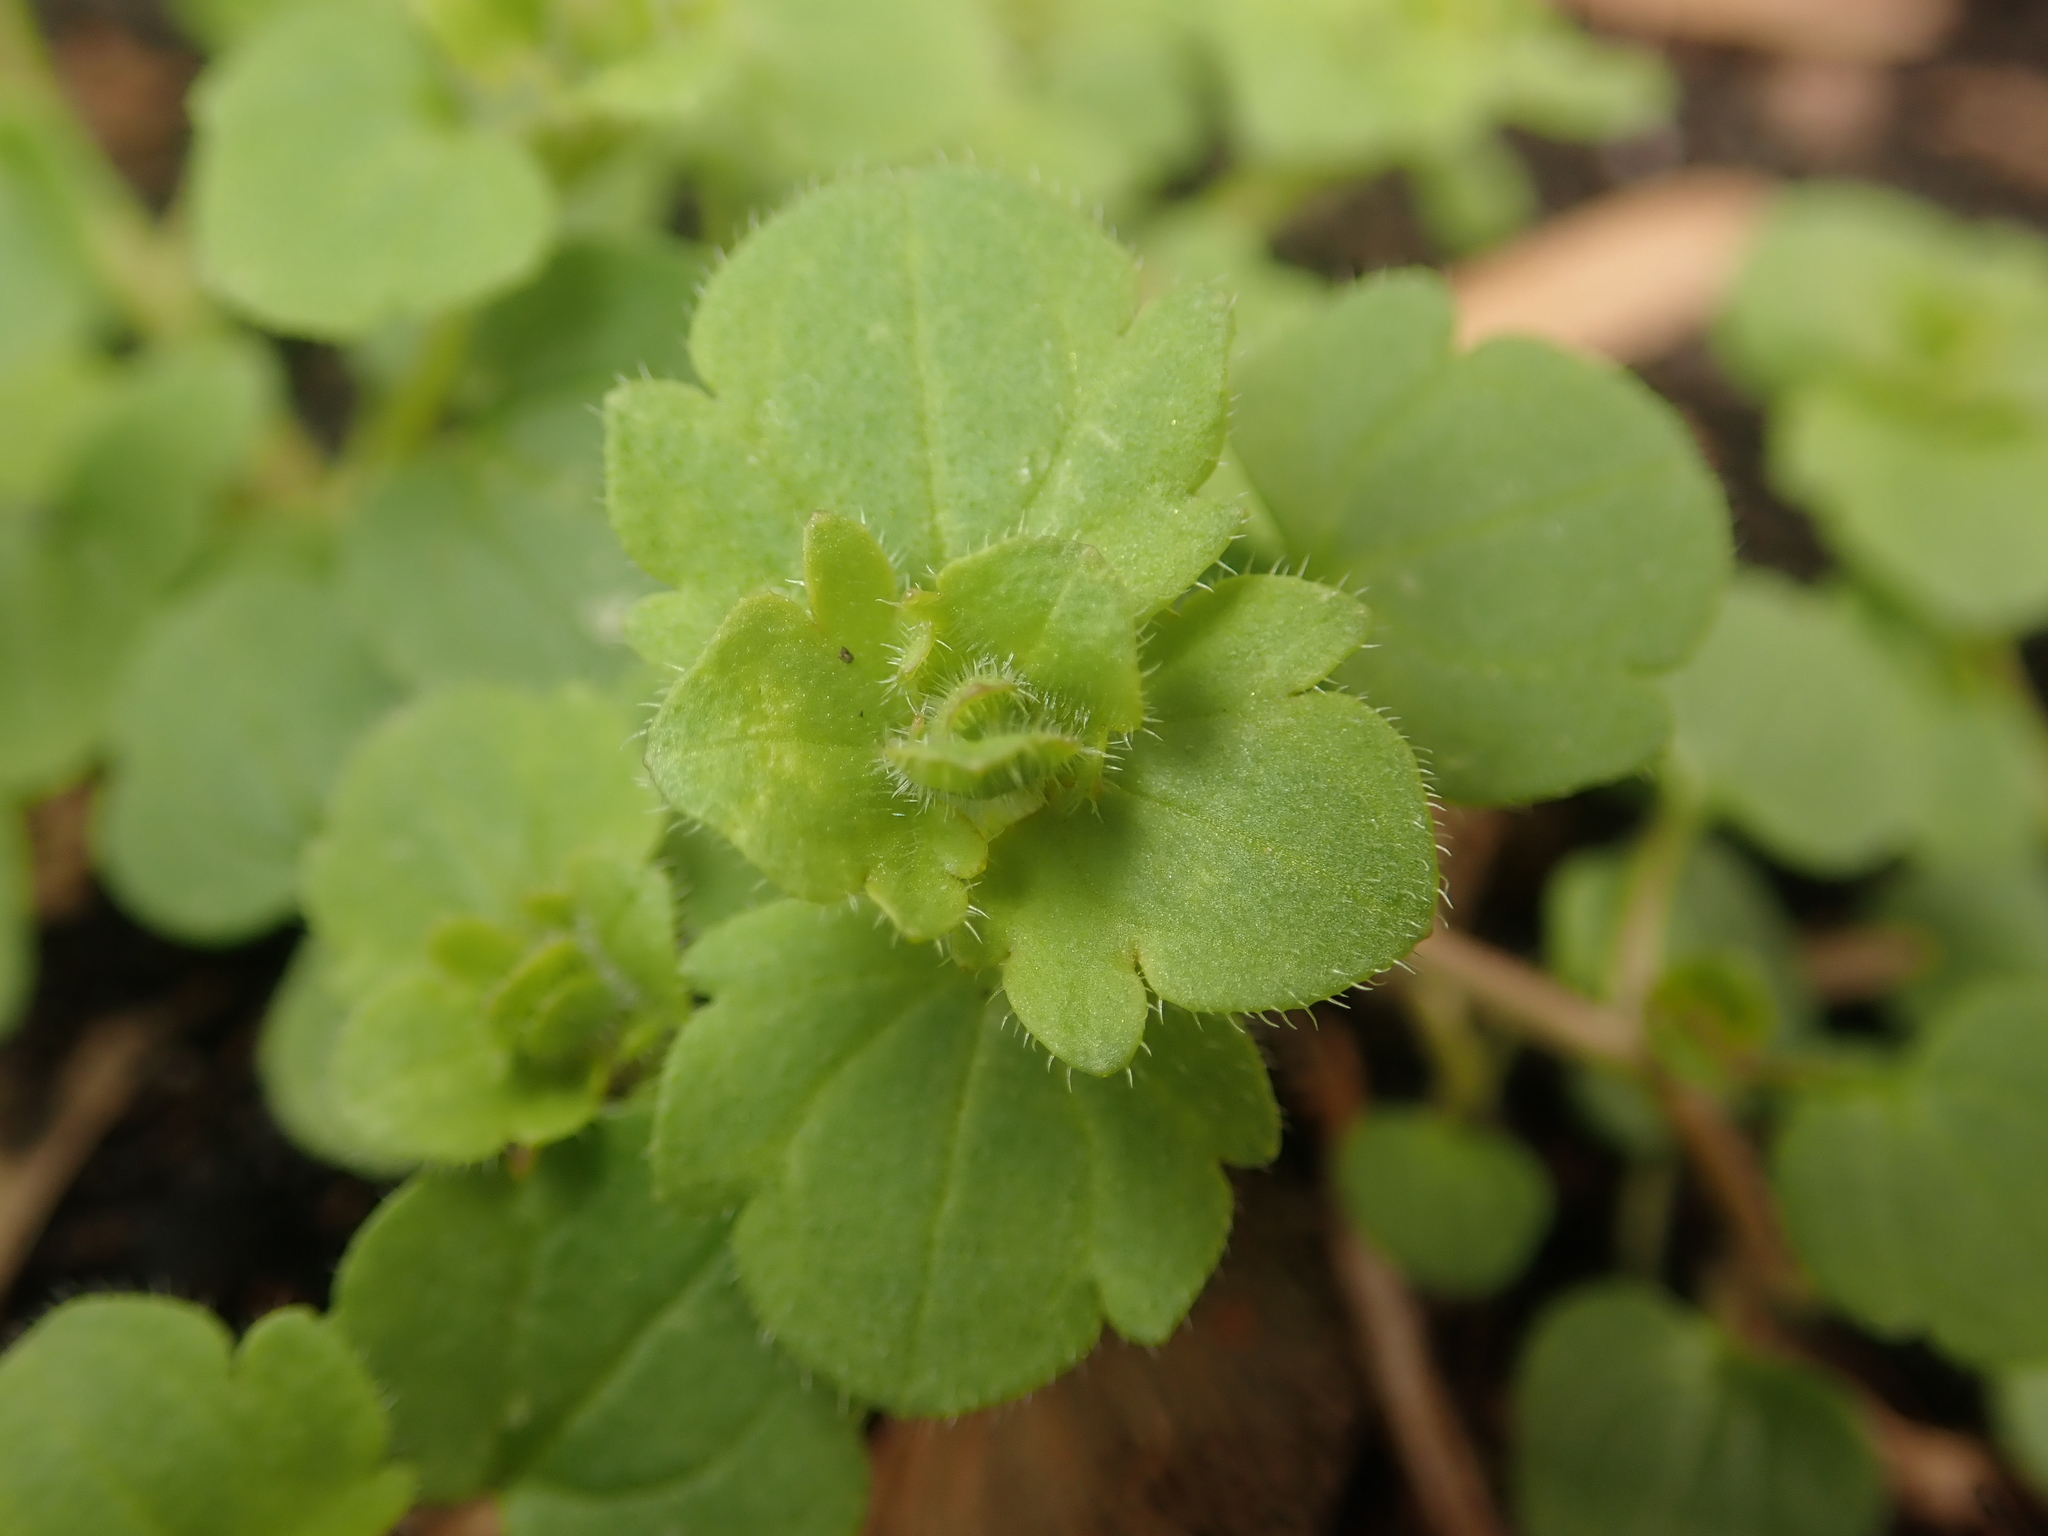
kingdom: Plantae
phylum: Tracheophyta
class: Magnoliopsida
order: Lamiales
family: Plantaginaceae
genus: Veronica
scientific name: Veronica hederifolia
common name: Ivy-leaved speedwell
